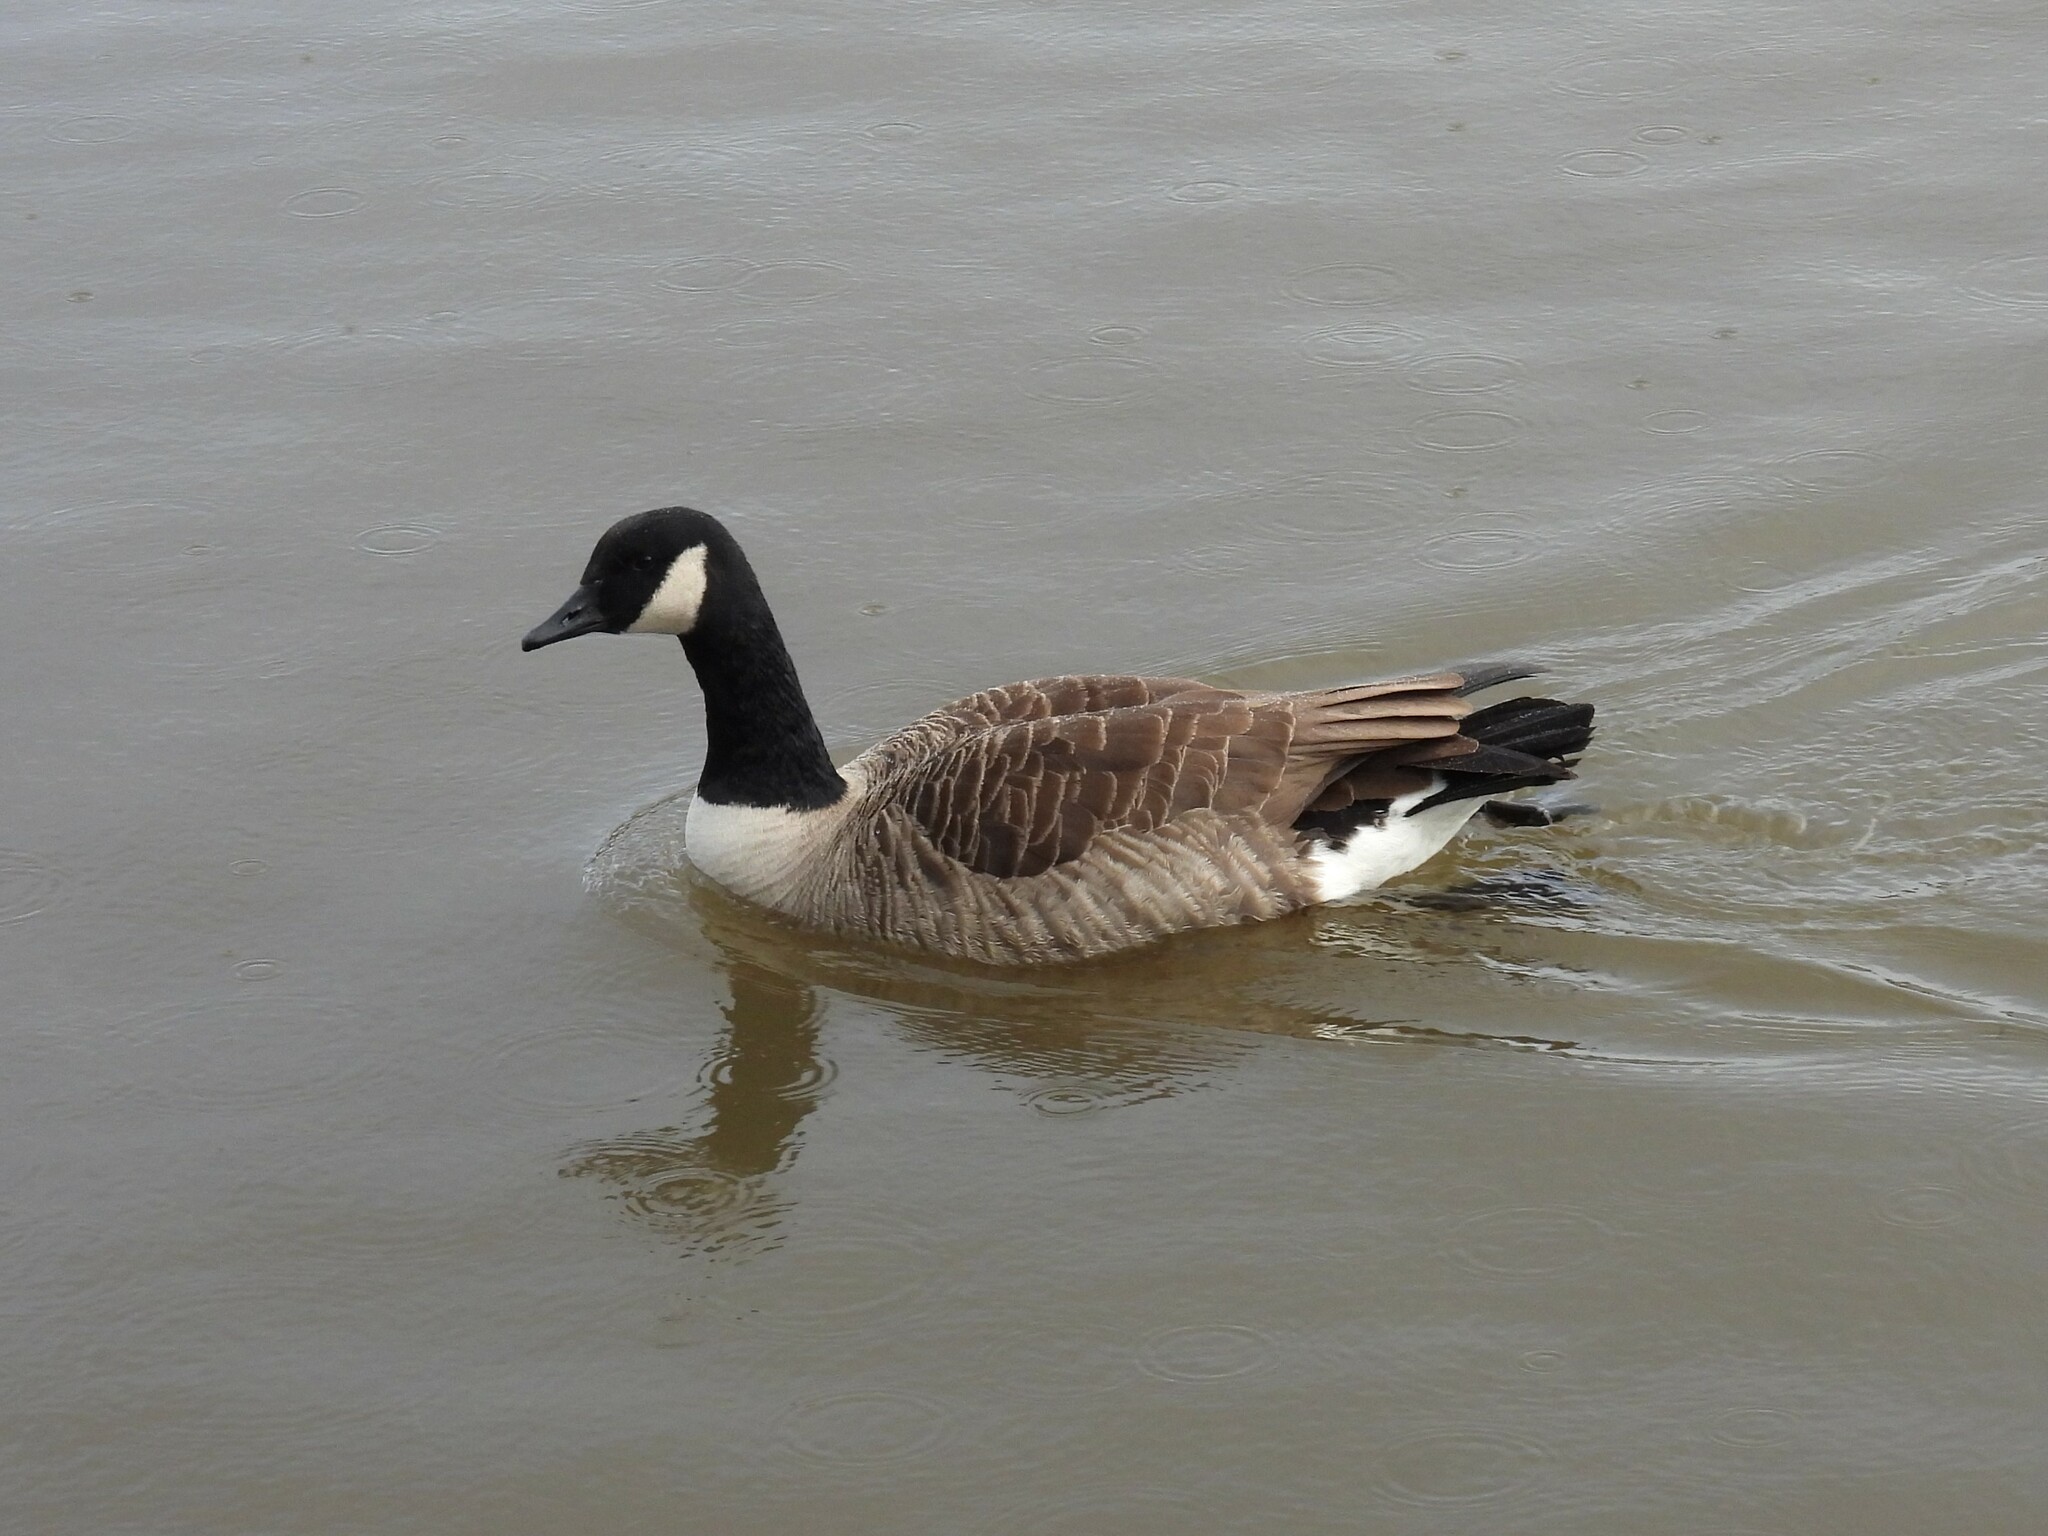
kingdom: Animalia
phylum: Chordata
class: Aves
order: Anseriformes
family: Anatidae
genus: Branta
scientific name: Branta canadensis
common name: Canada goose
